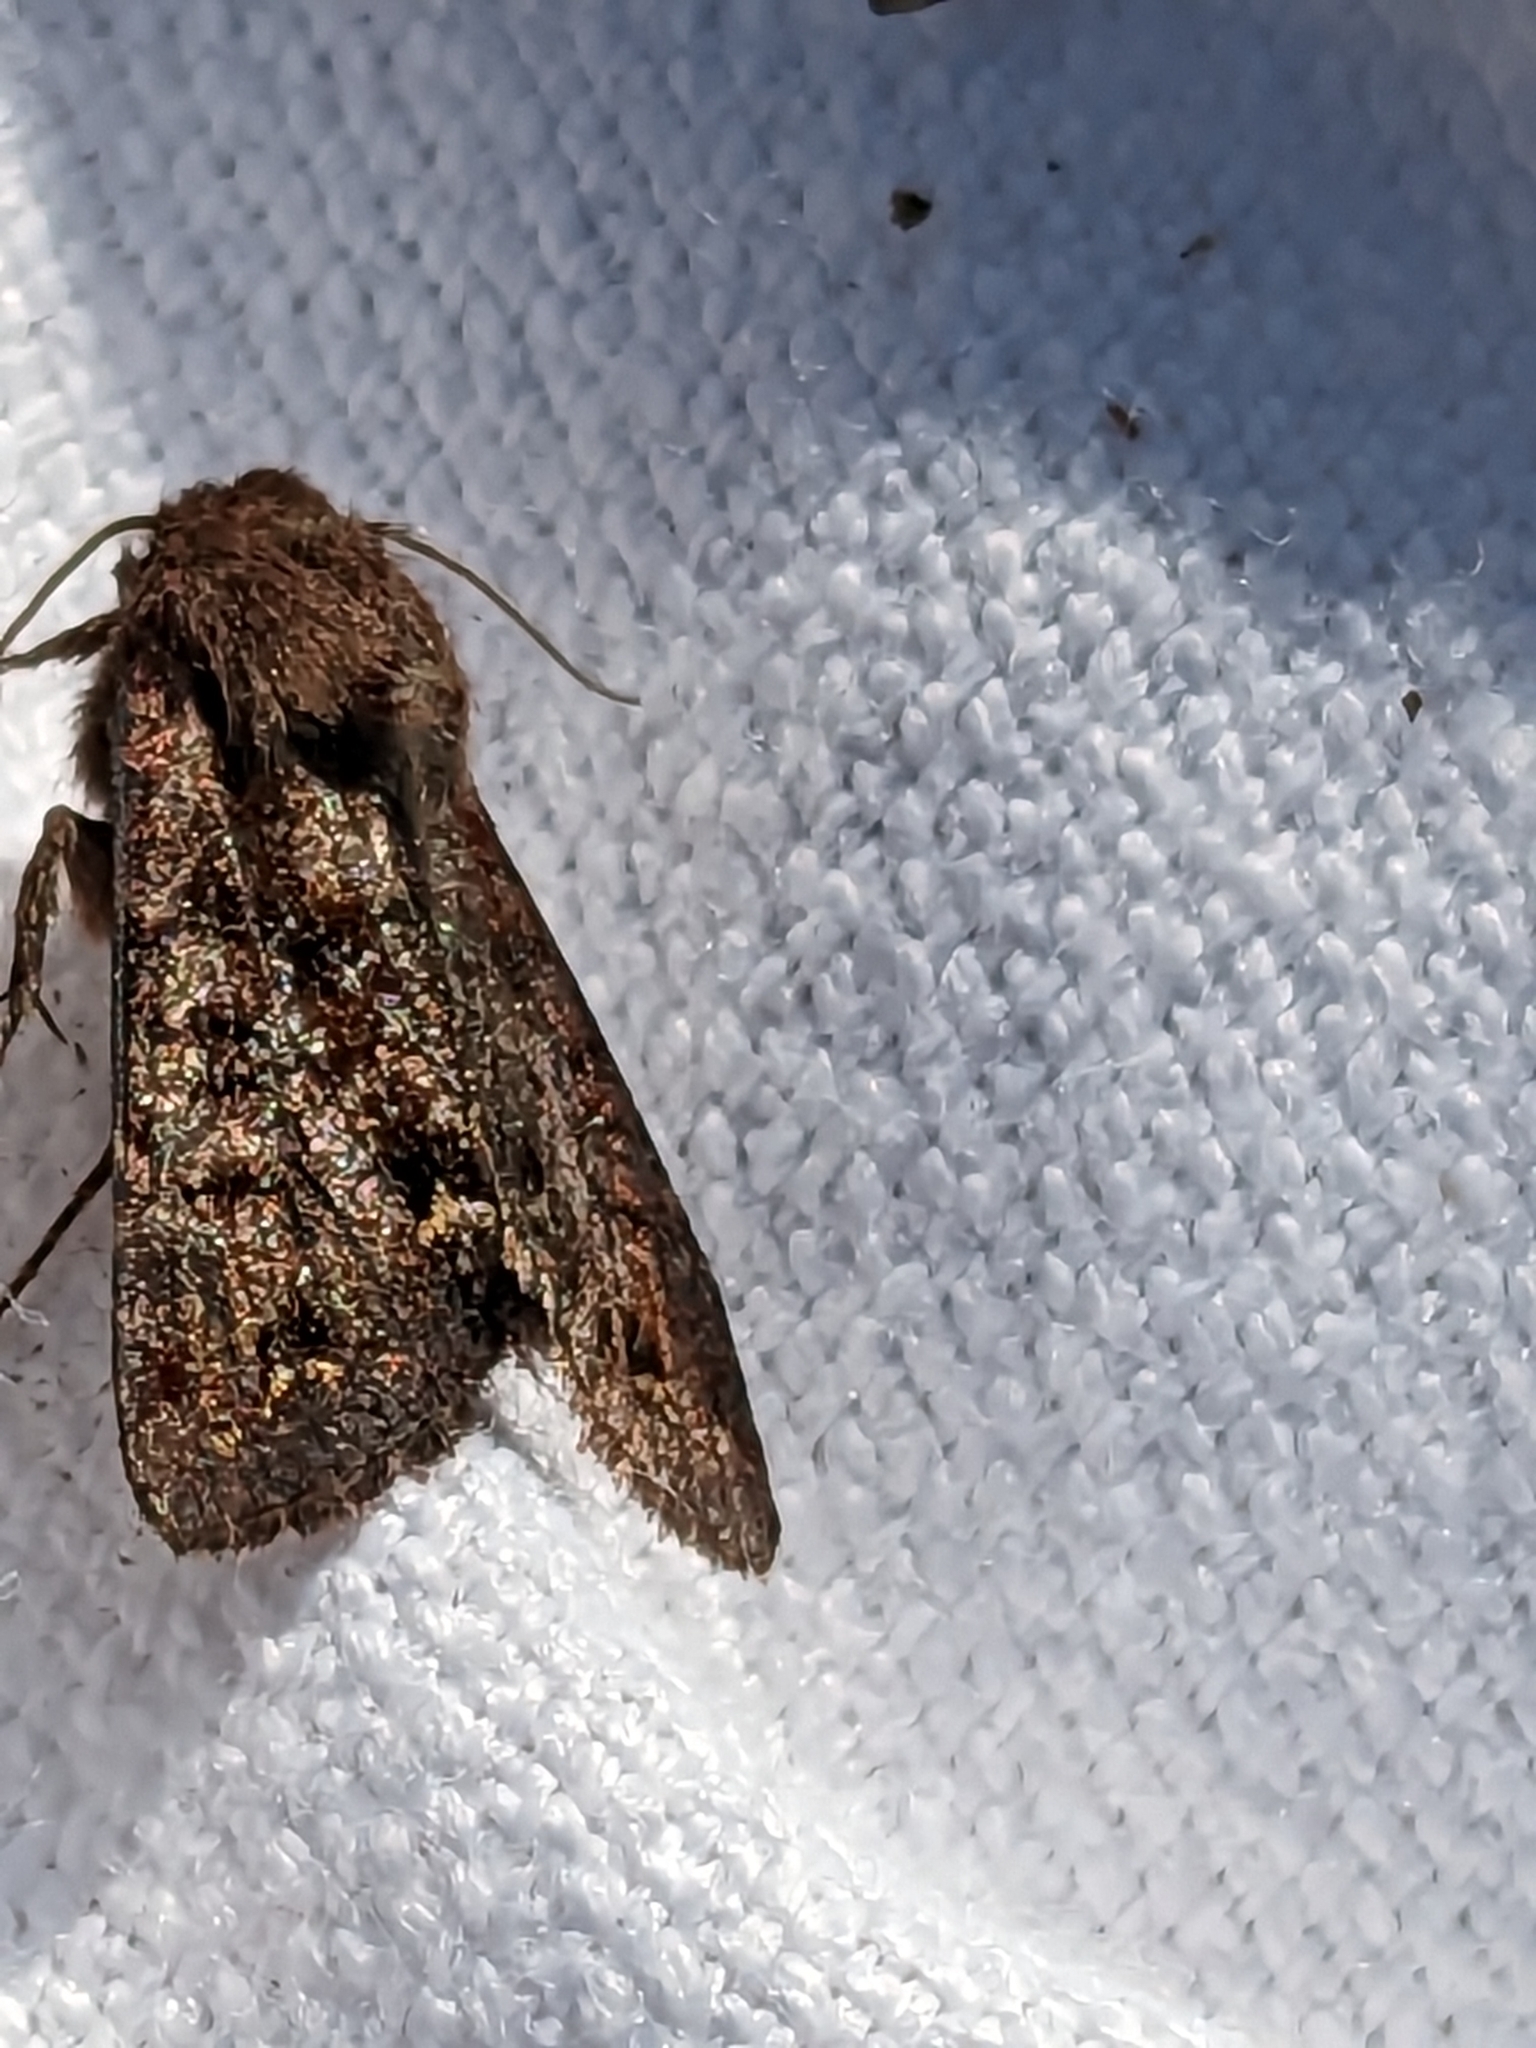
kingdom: Animalia
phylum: Arthropoda
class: Insecta
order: Lepidoptera
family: Noctuidae
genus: Ceramica
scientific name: Ceramica pisi
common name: Broom moth
